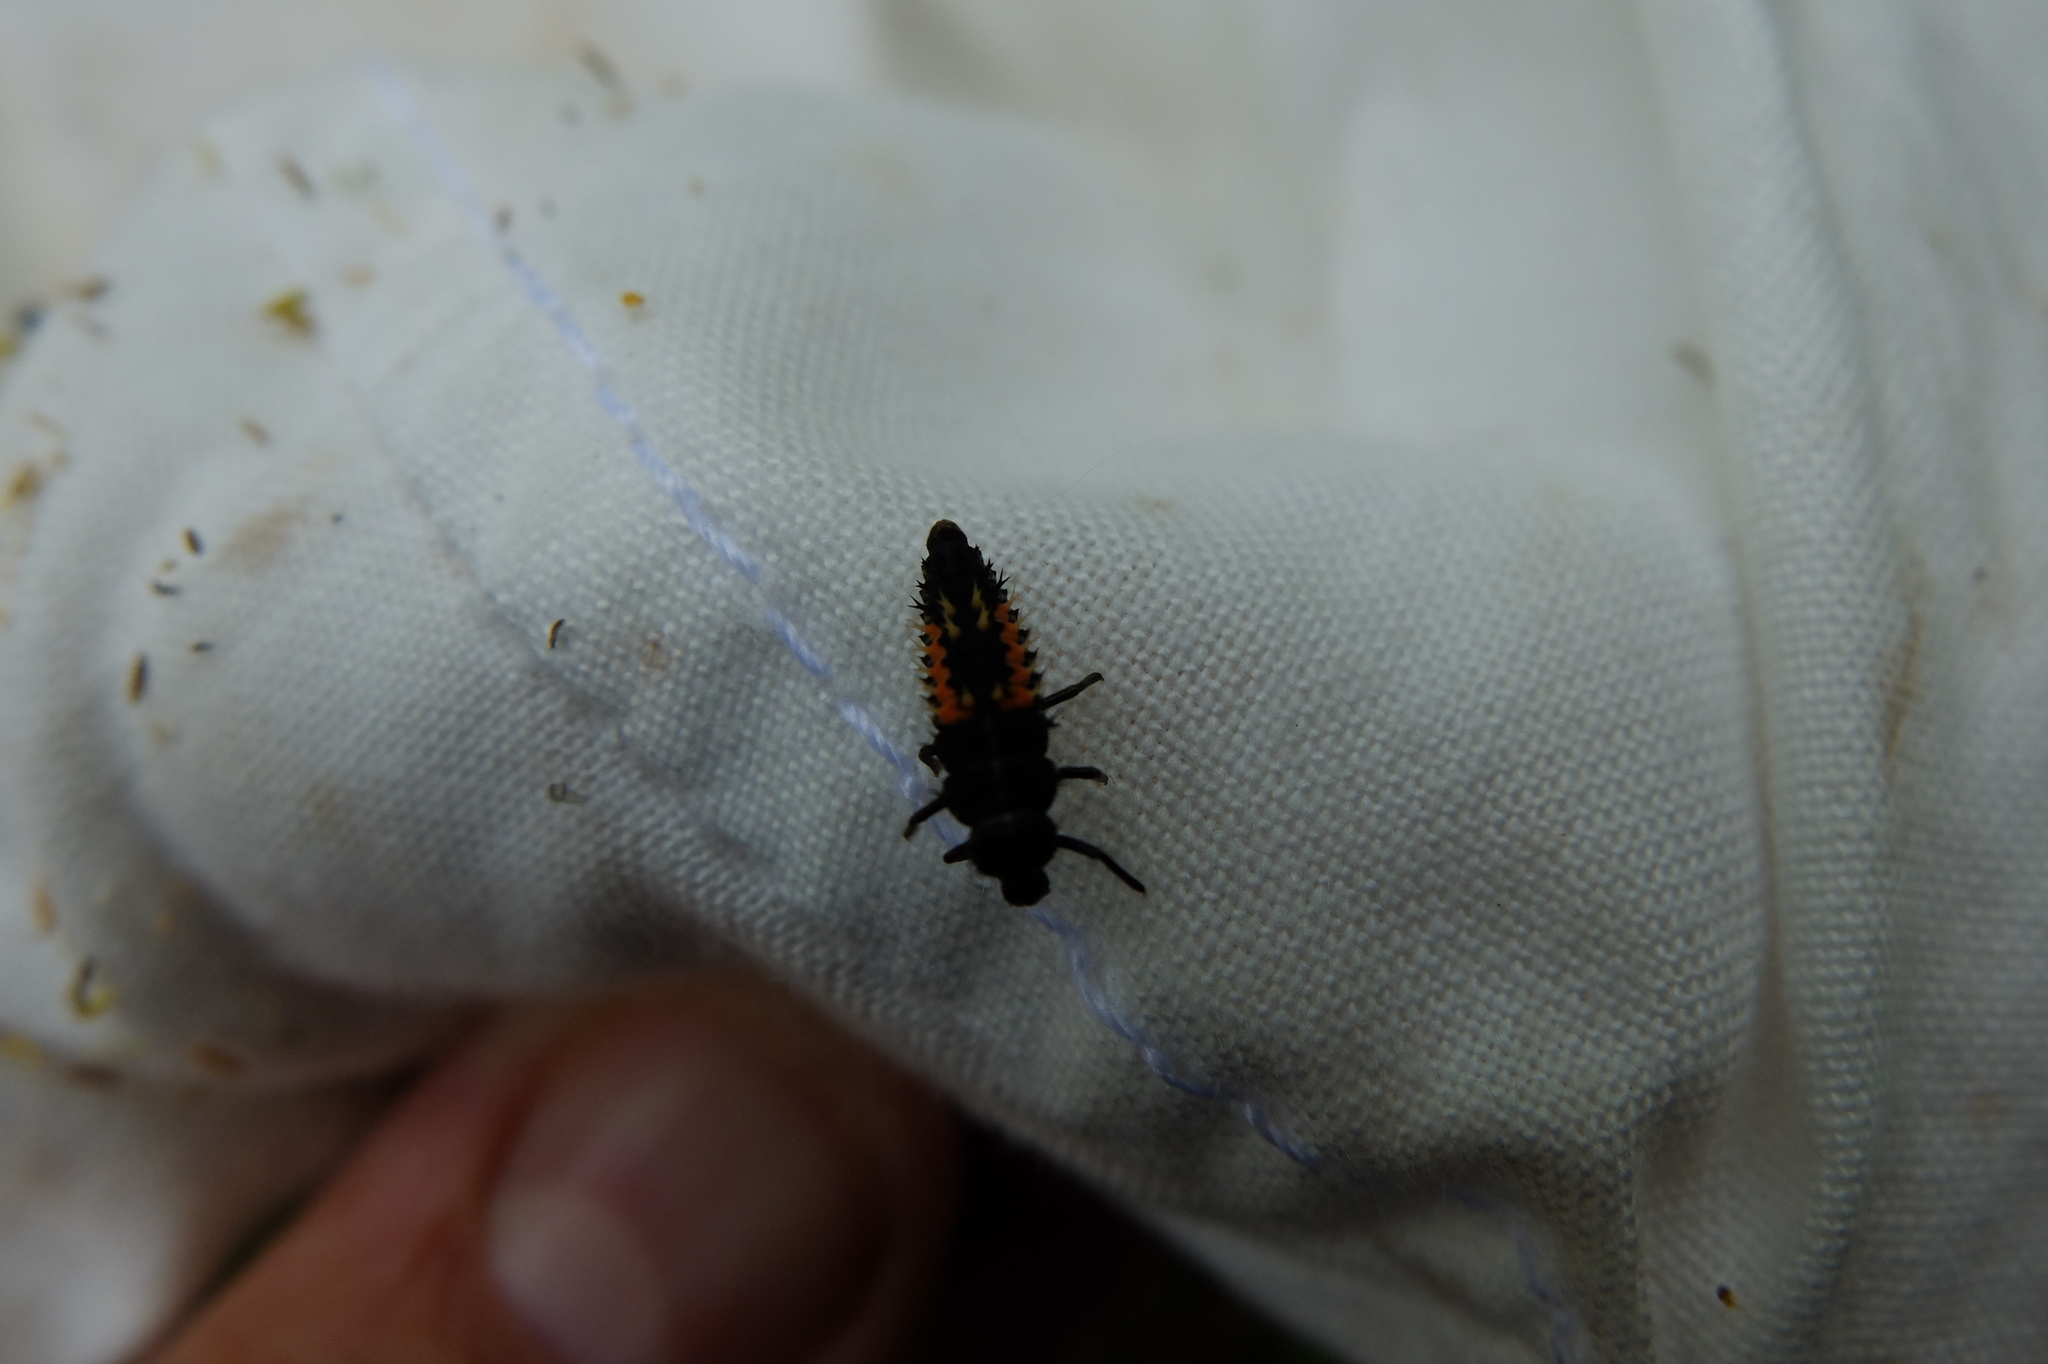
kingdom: Animalia
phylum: Arthropoda
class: Insecta
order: Coleoptera
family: Coccinellidae
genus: Harmonia
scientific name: Harmonia axyridis
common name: Harlequin ladybird
